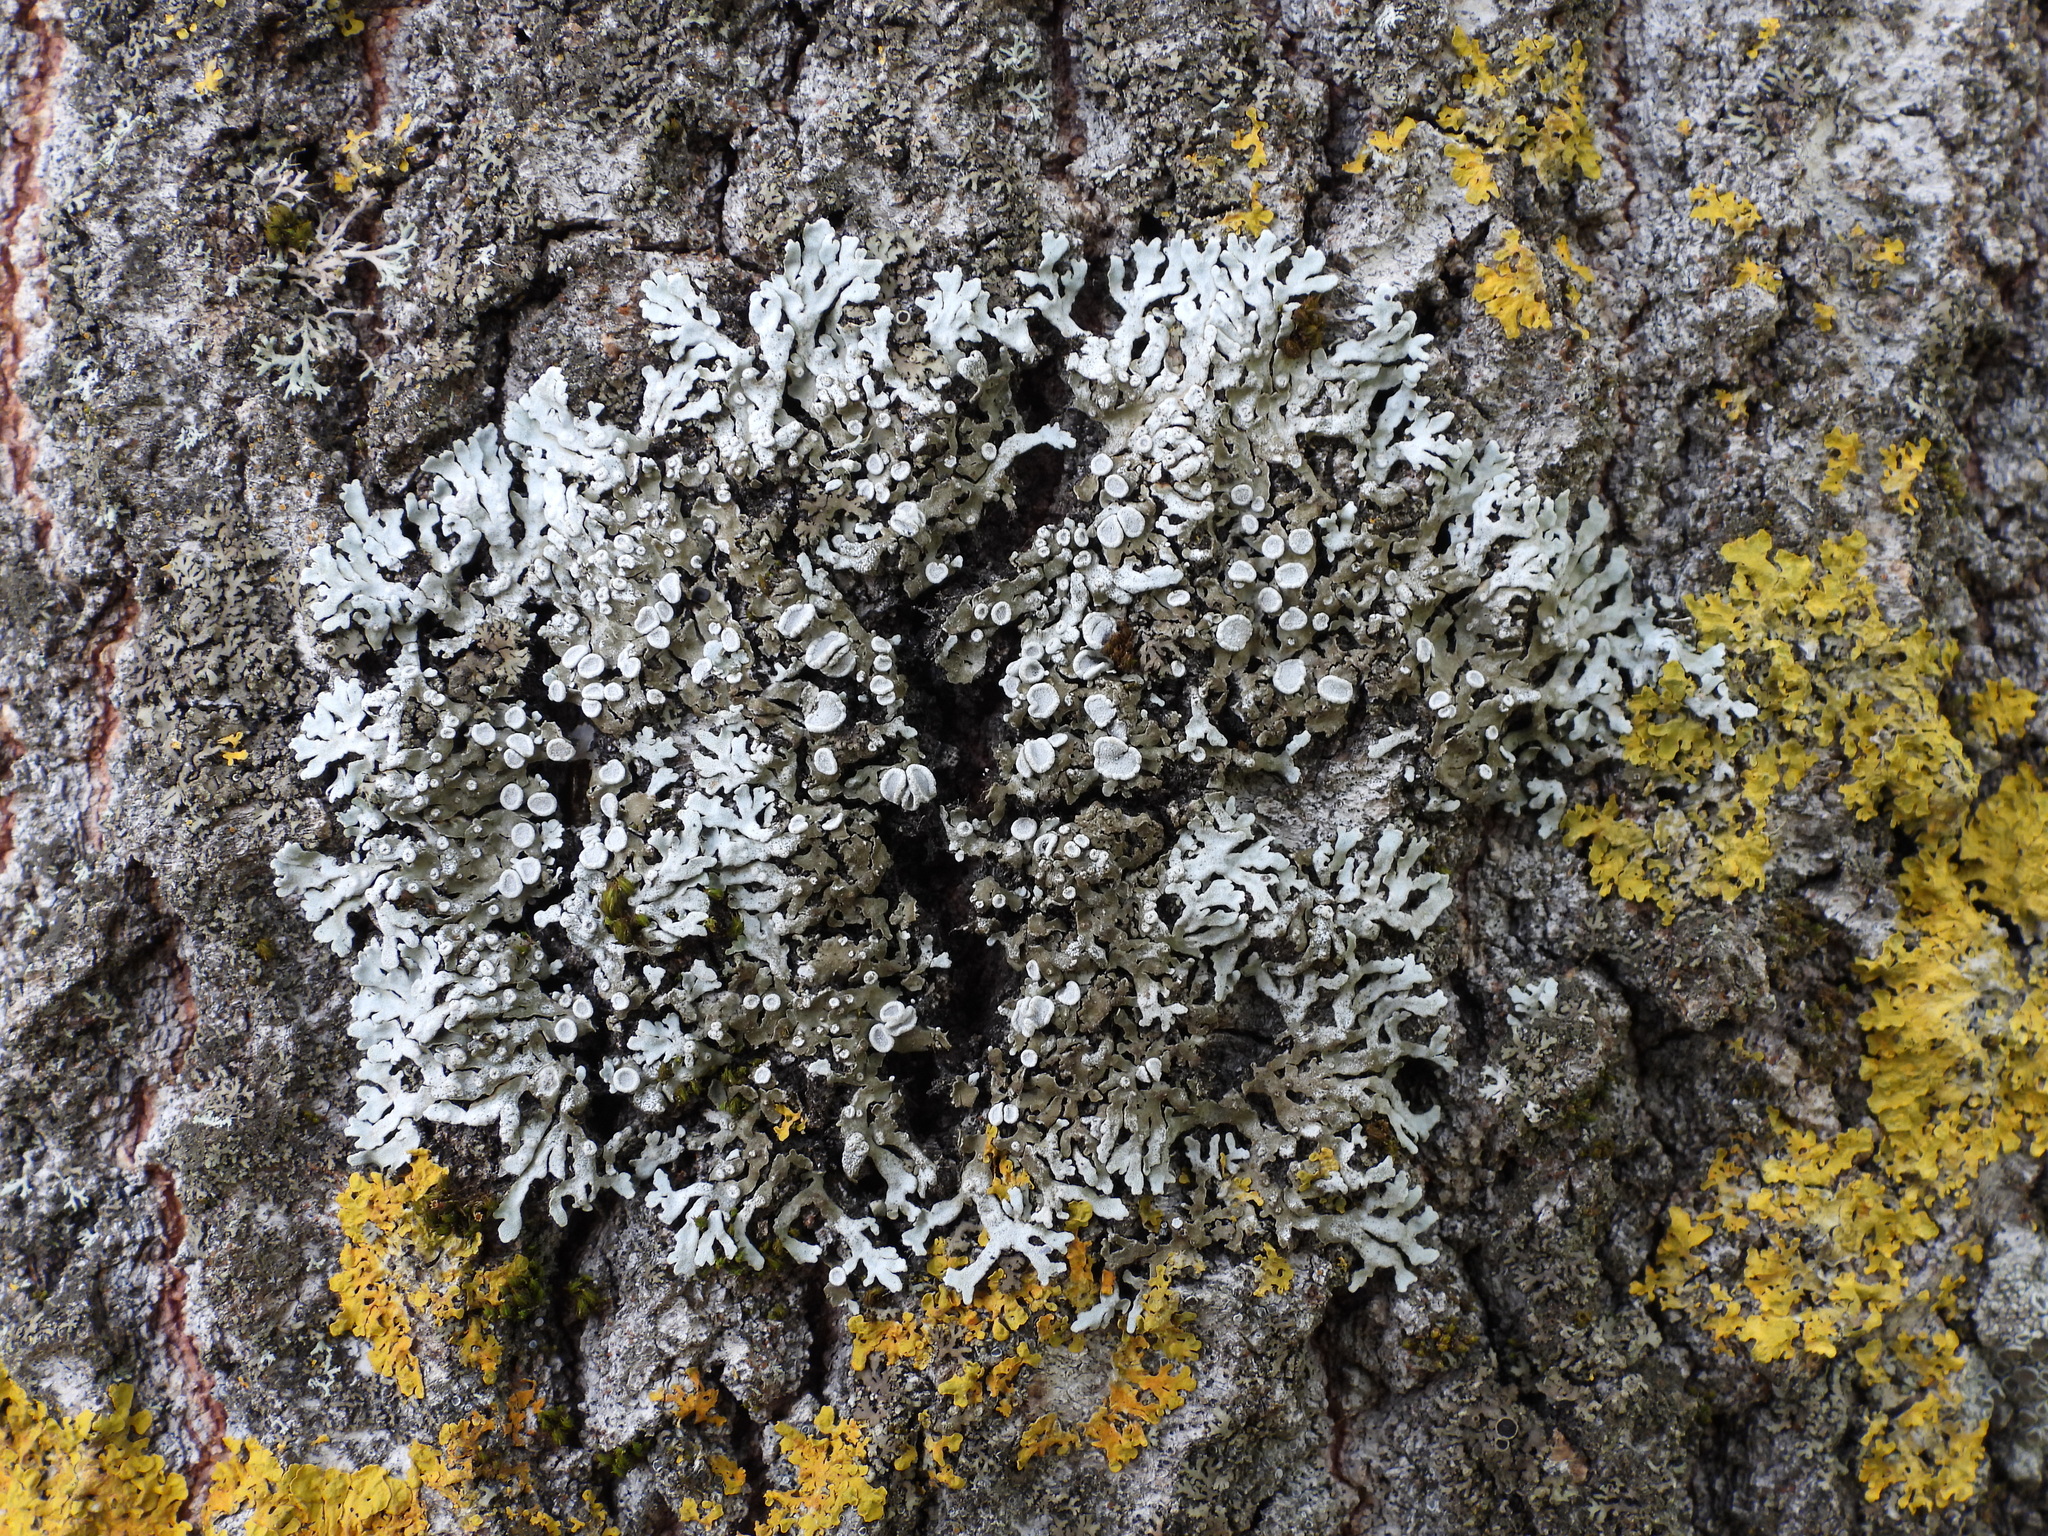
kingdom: Fungi
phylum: Ascomycota
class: Lecanoromycetes
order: Caliciales
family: Physciaceae
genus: Physconia
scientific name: Physconia distorta
